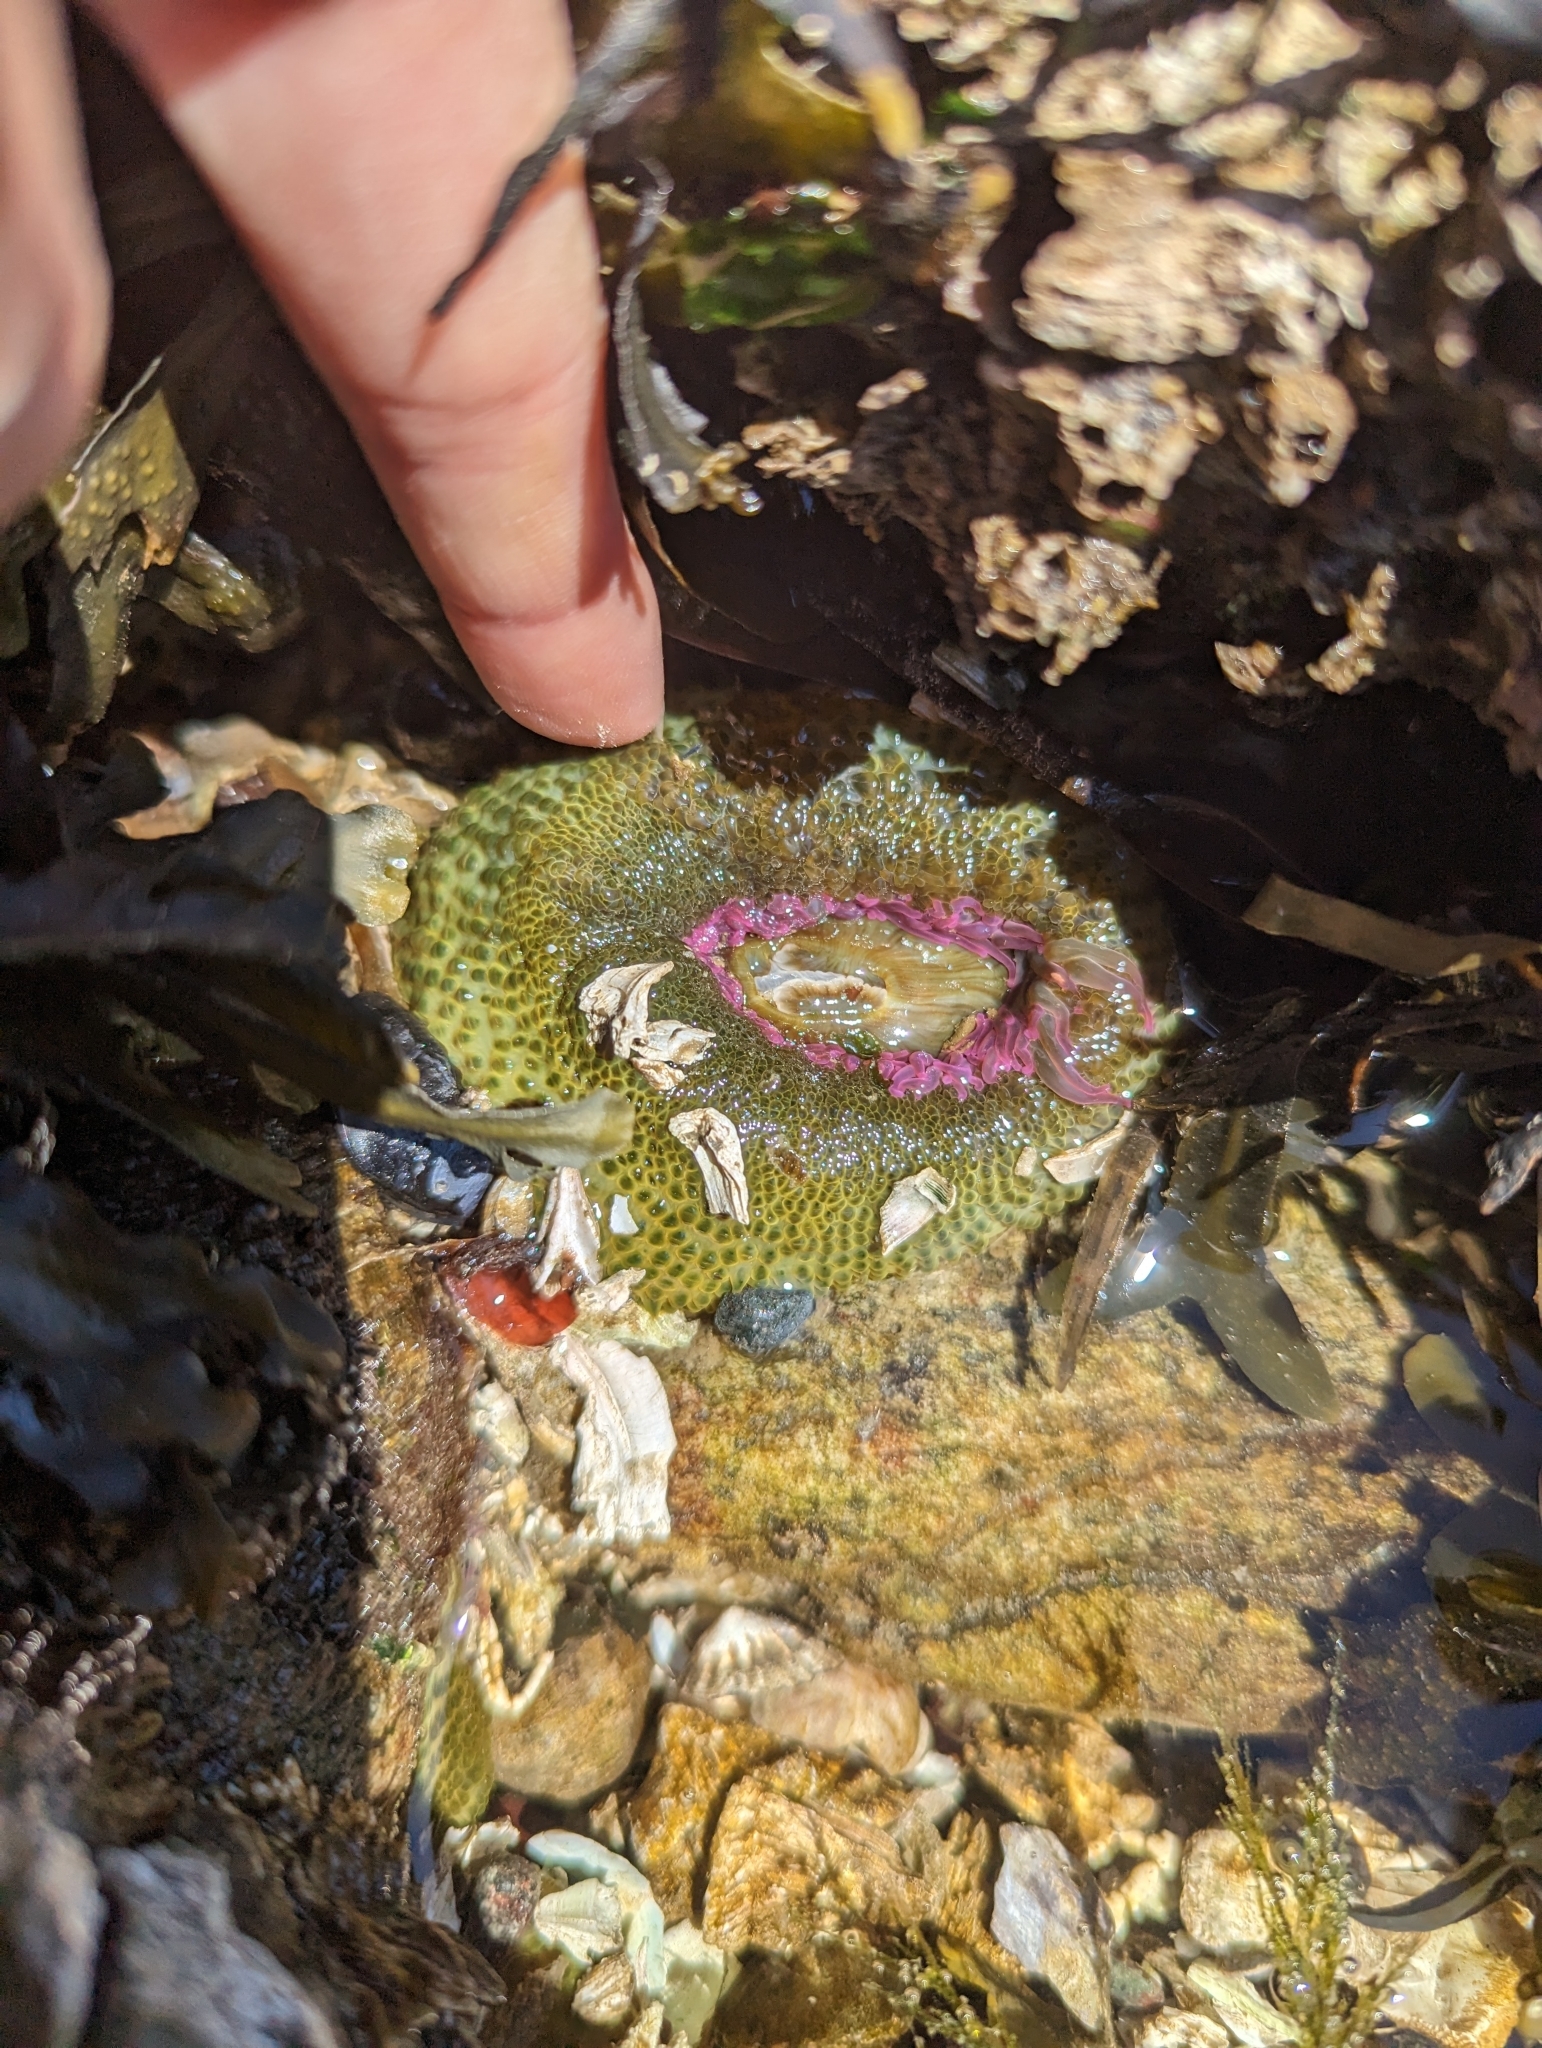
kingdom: Animalia
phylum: Cnidaria
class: Anthozoa
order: Actiniaria
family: Actiniidae
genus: Anthopleura
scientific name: Anthopleura elegantissima
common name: Clonal anemone
